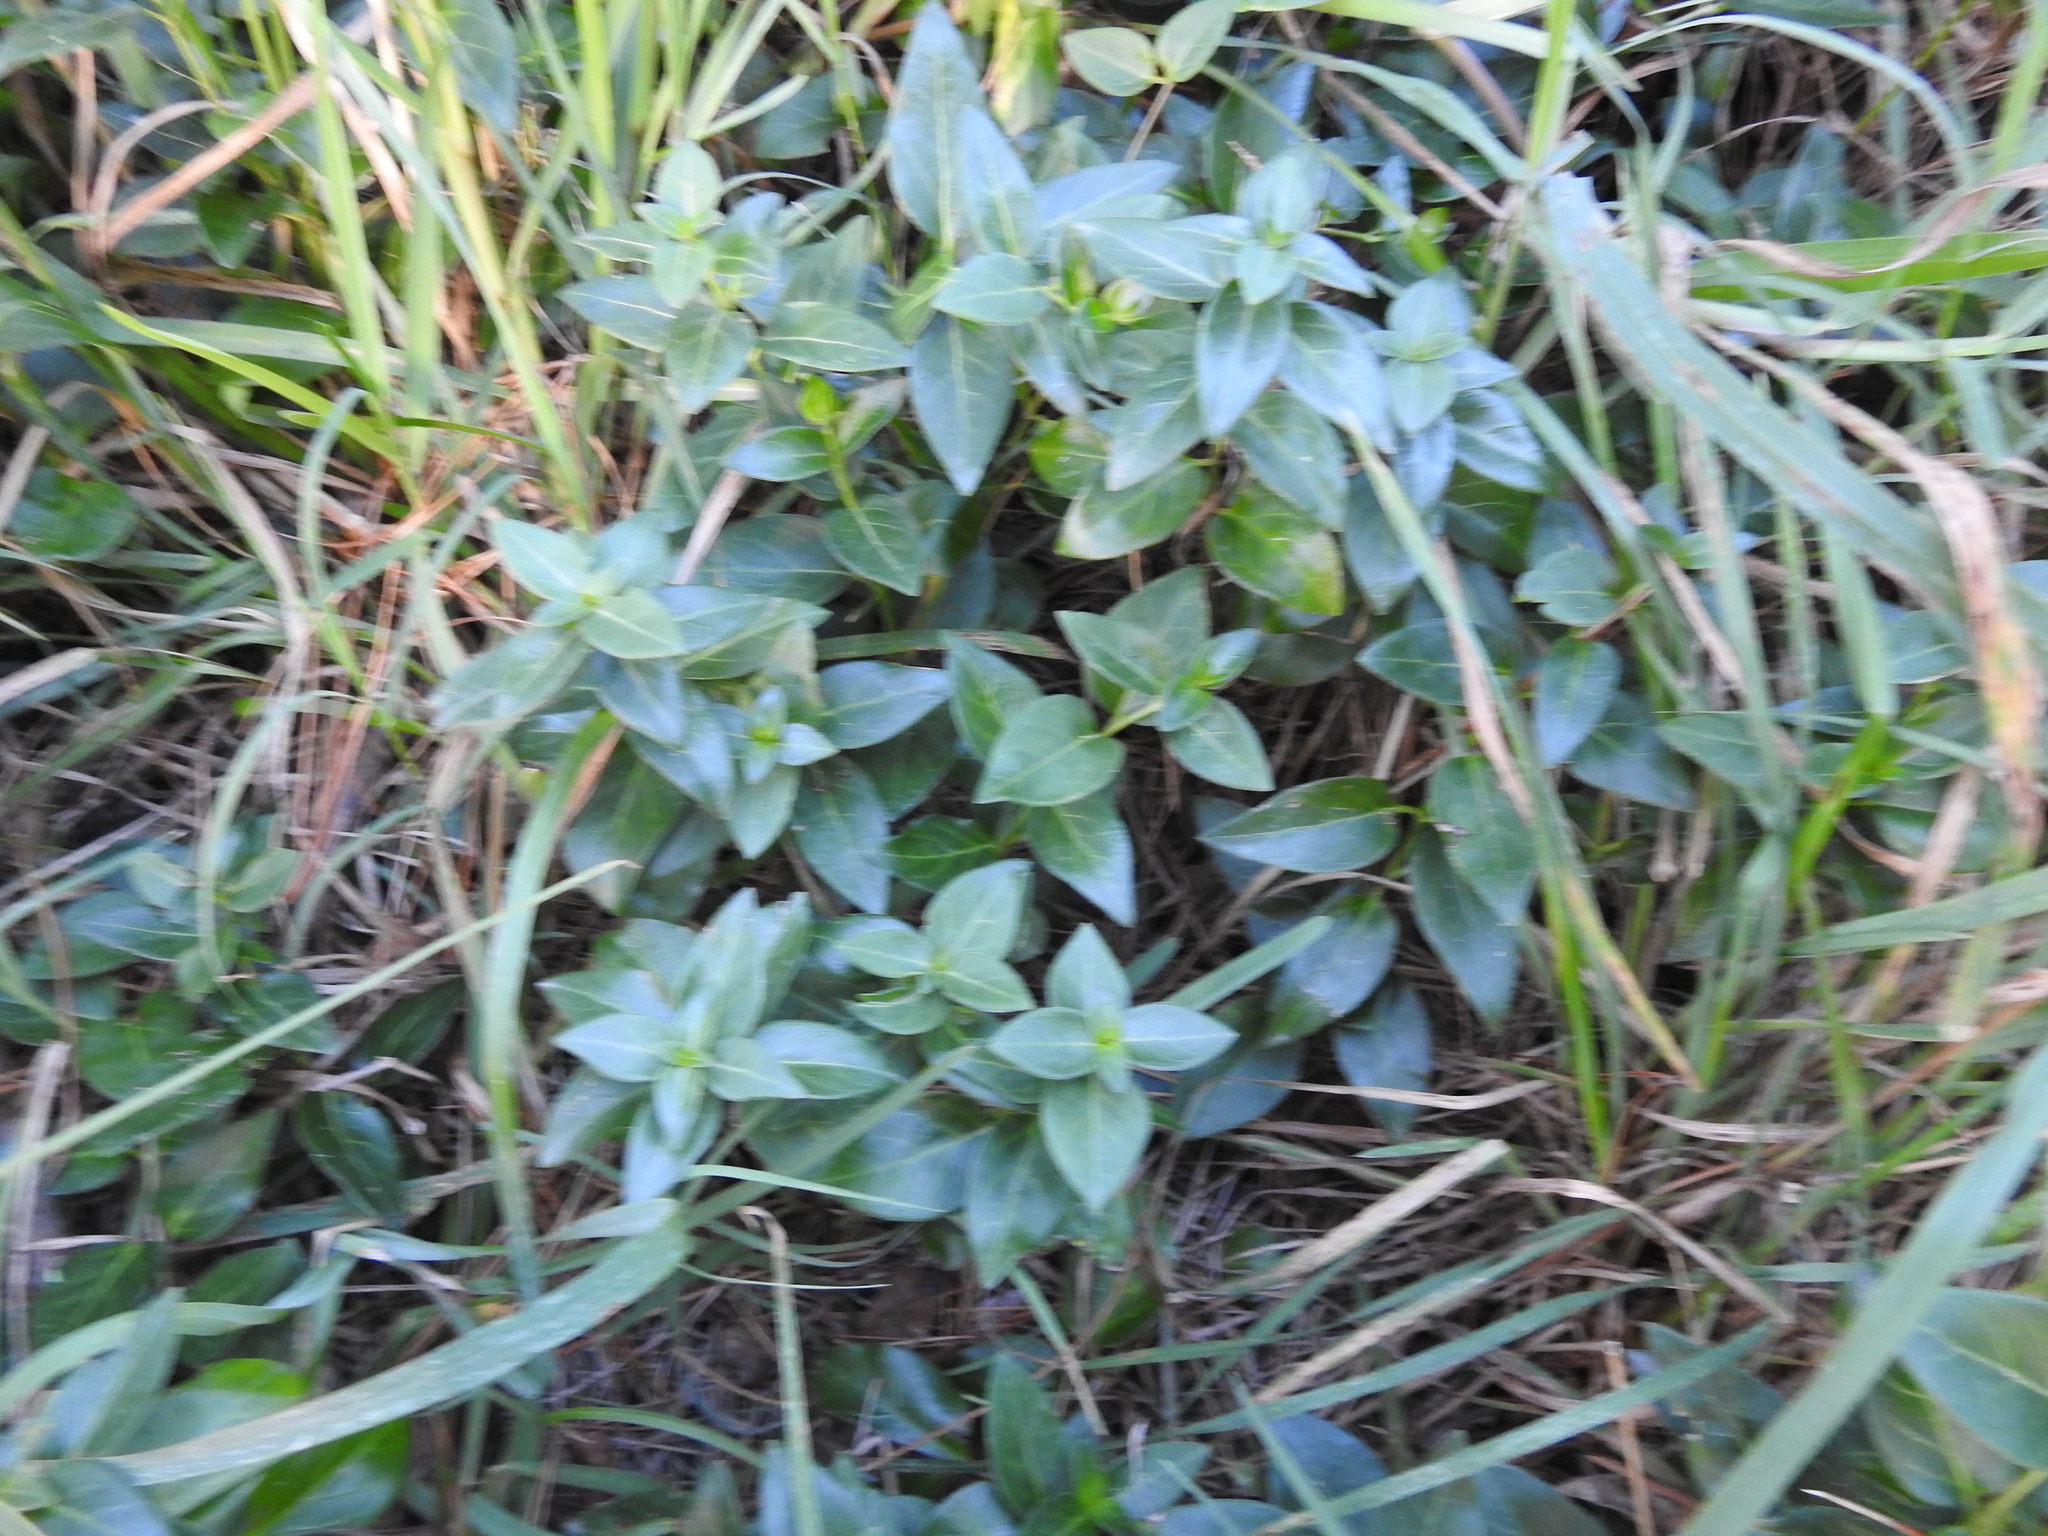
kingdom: Plantae
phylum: Tracheophyta
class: Magnoliopsida
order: Gentianales
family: Apocynaceae
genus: Vinca
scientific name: Vinca major
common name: Greater periwinkle
